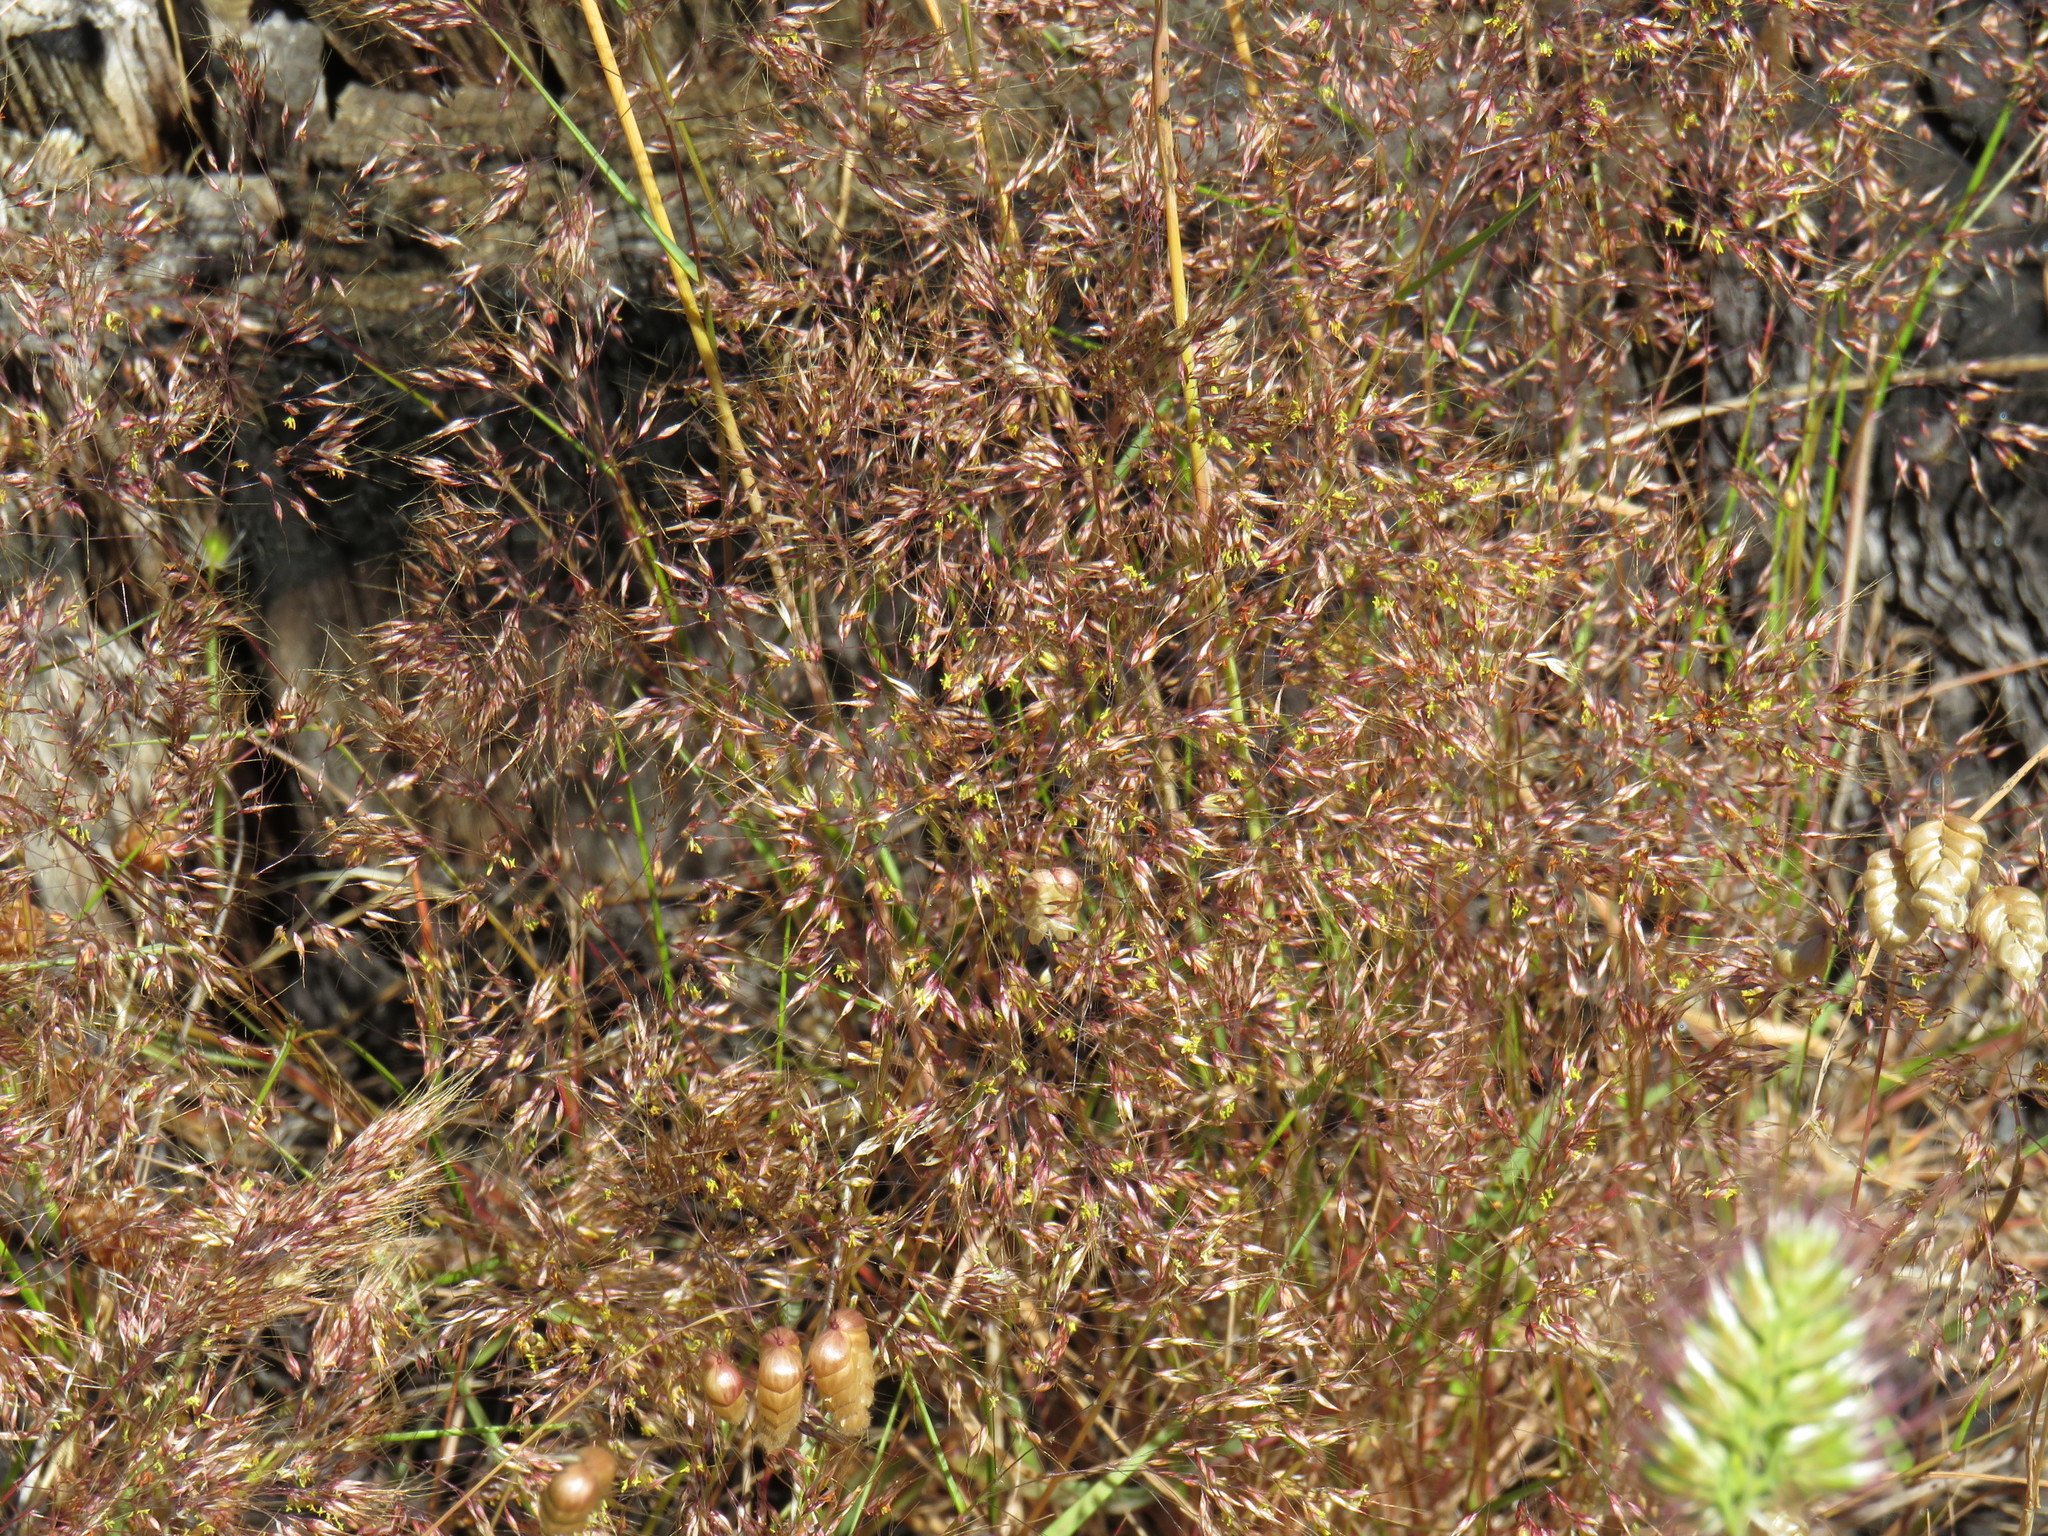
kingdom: Plantae
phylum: Tracheophyta
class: Liliopsida
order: Poales
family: Poaceae
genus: Pentameris
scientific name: Pentameris airoides
